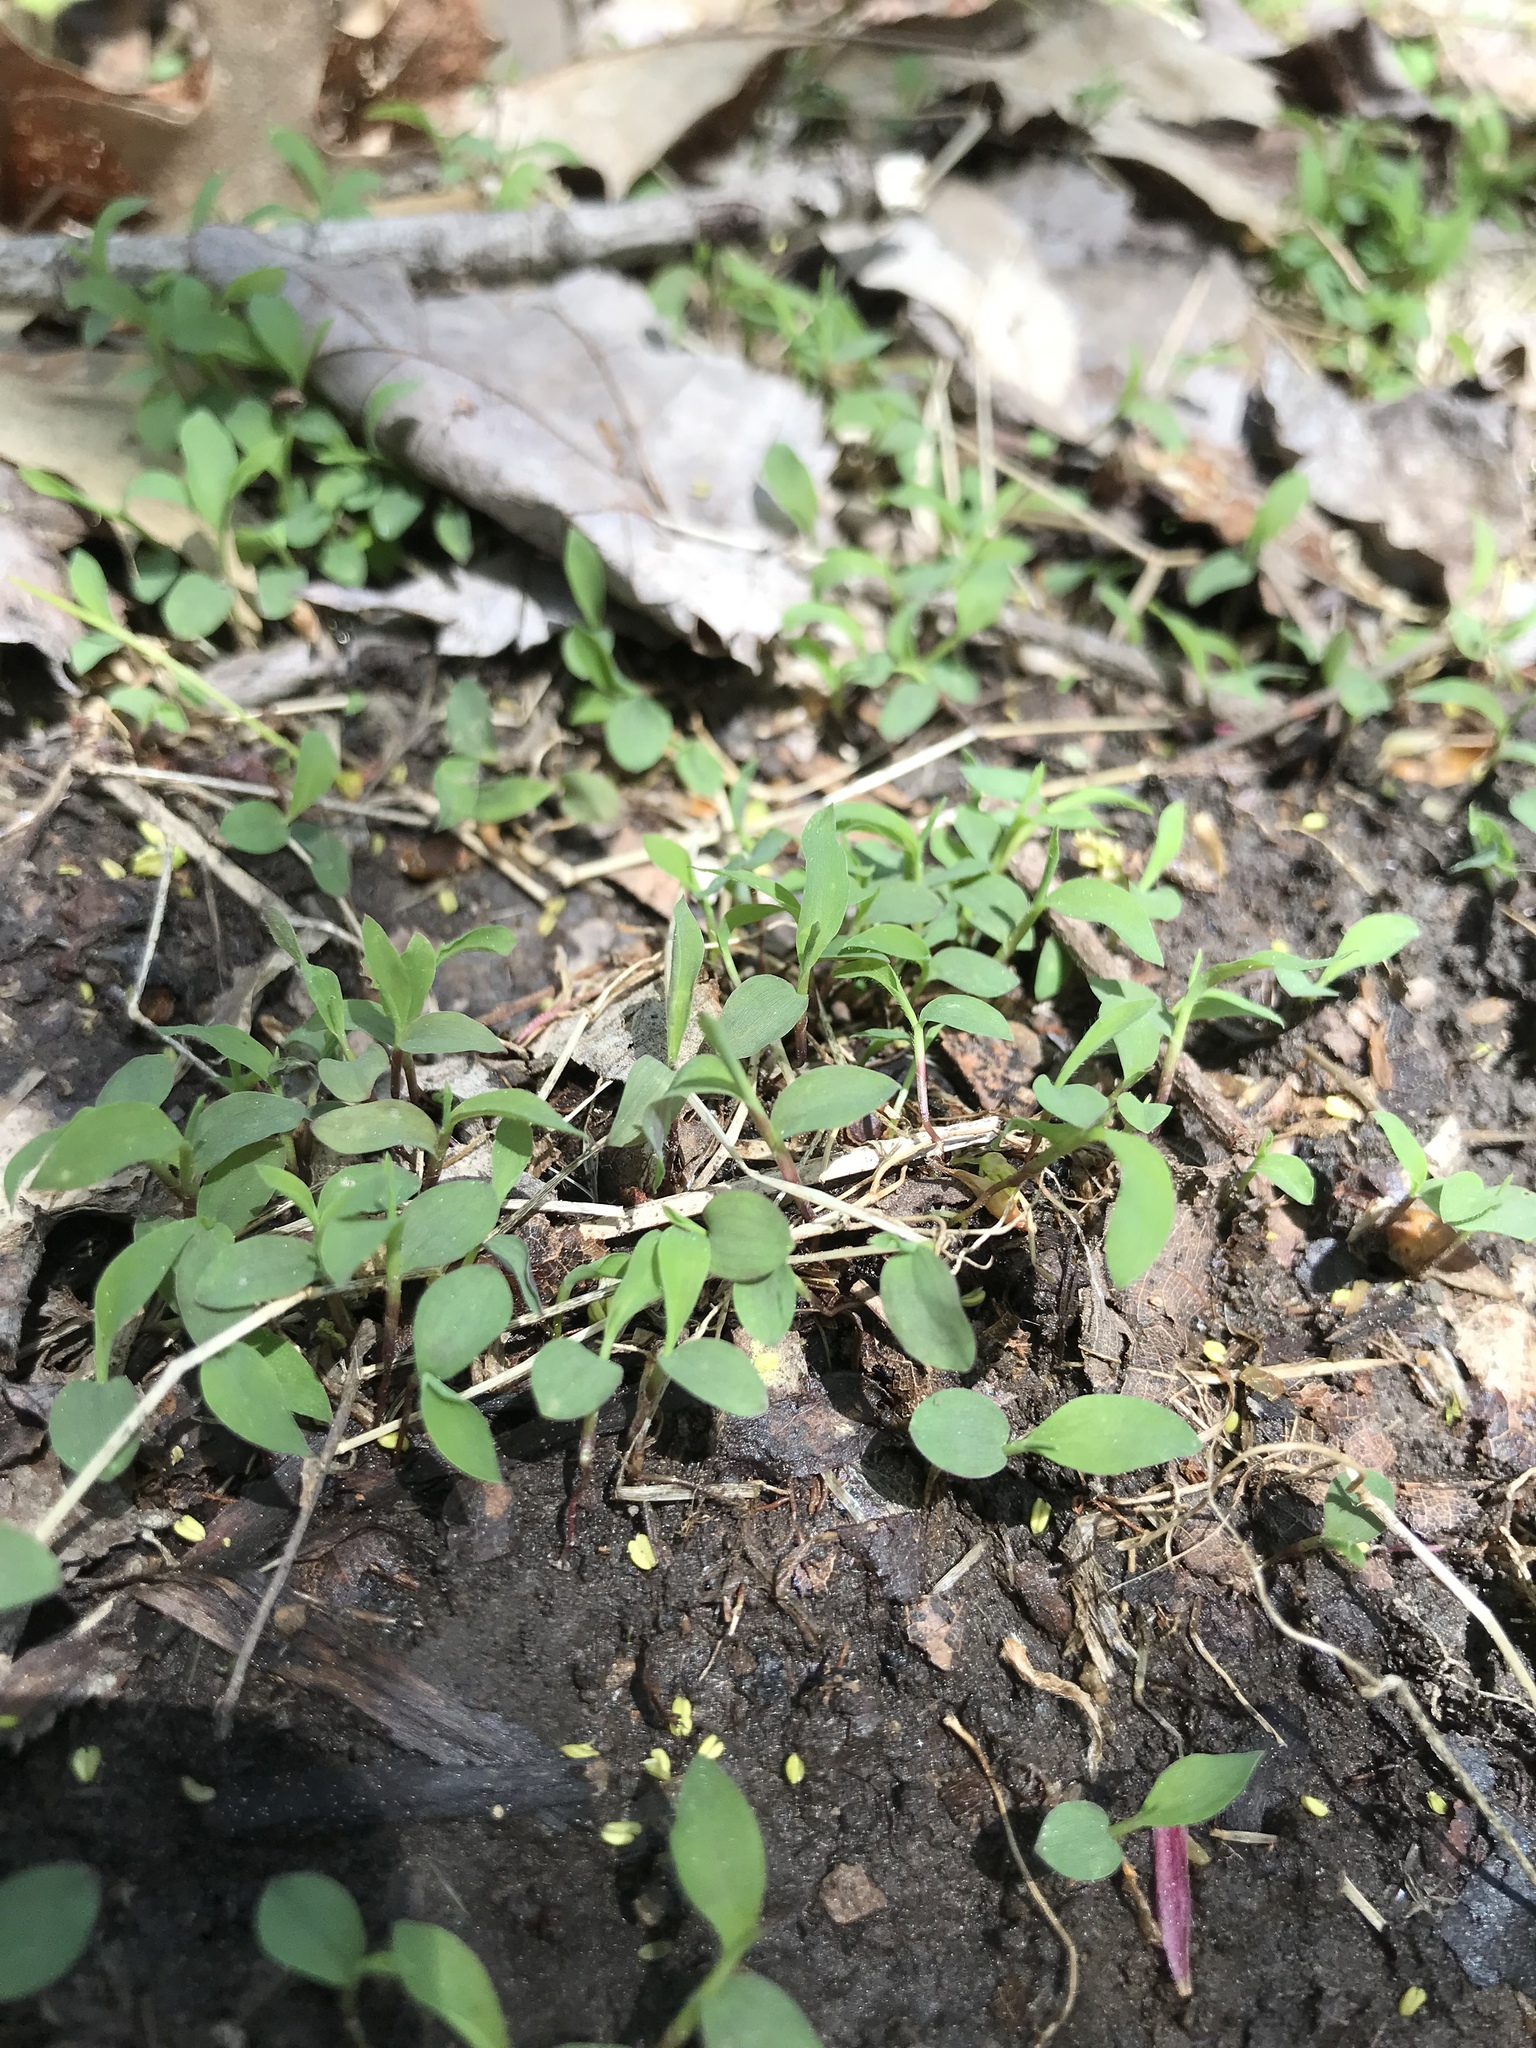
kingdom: Plantae
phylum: Tracheophyta
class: Liliopsida
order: Poales
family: Poaceae
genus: Microstegium
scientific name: Microstegium vimineum
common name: Japanese stiltgrass
